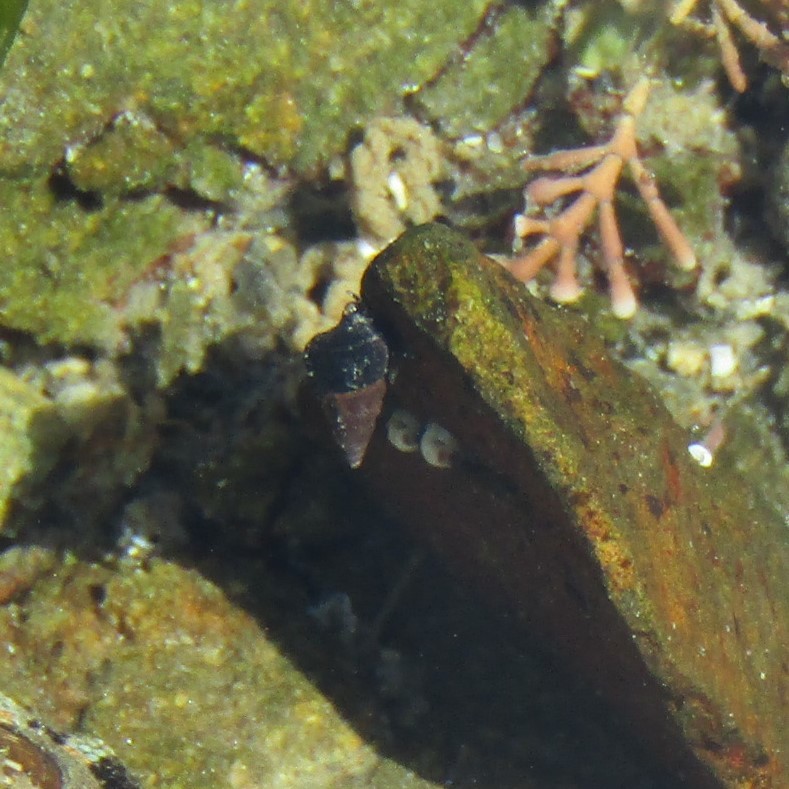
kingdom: Animalia
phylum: Mollusca
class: Gastropoda
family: Batillariidae
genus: Zeacumantus
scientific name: Zeacumantus subcarinatus
